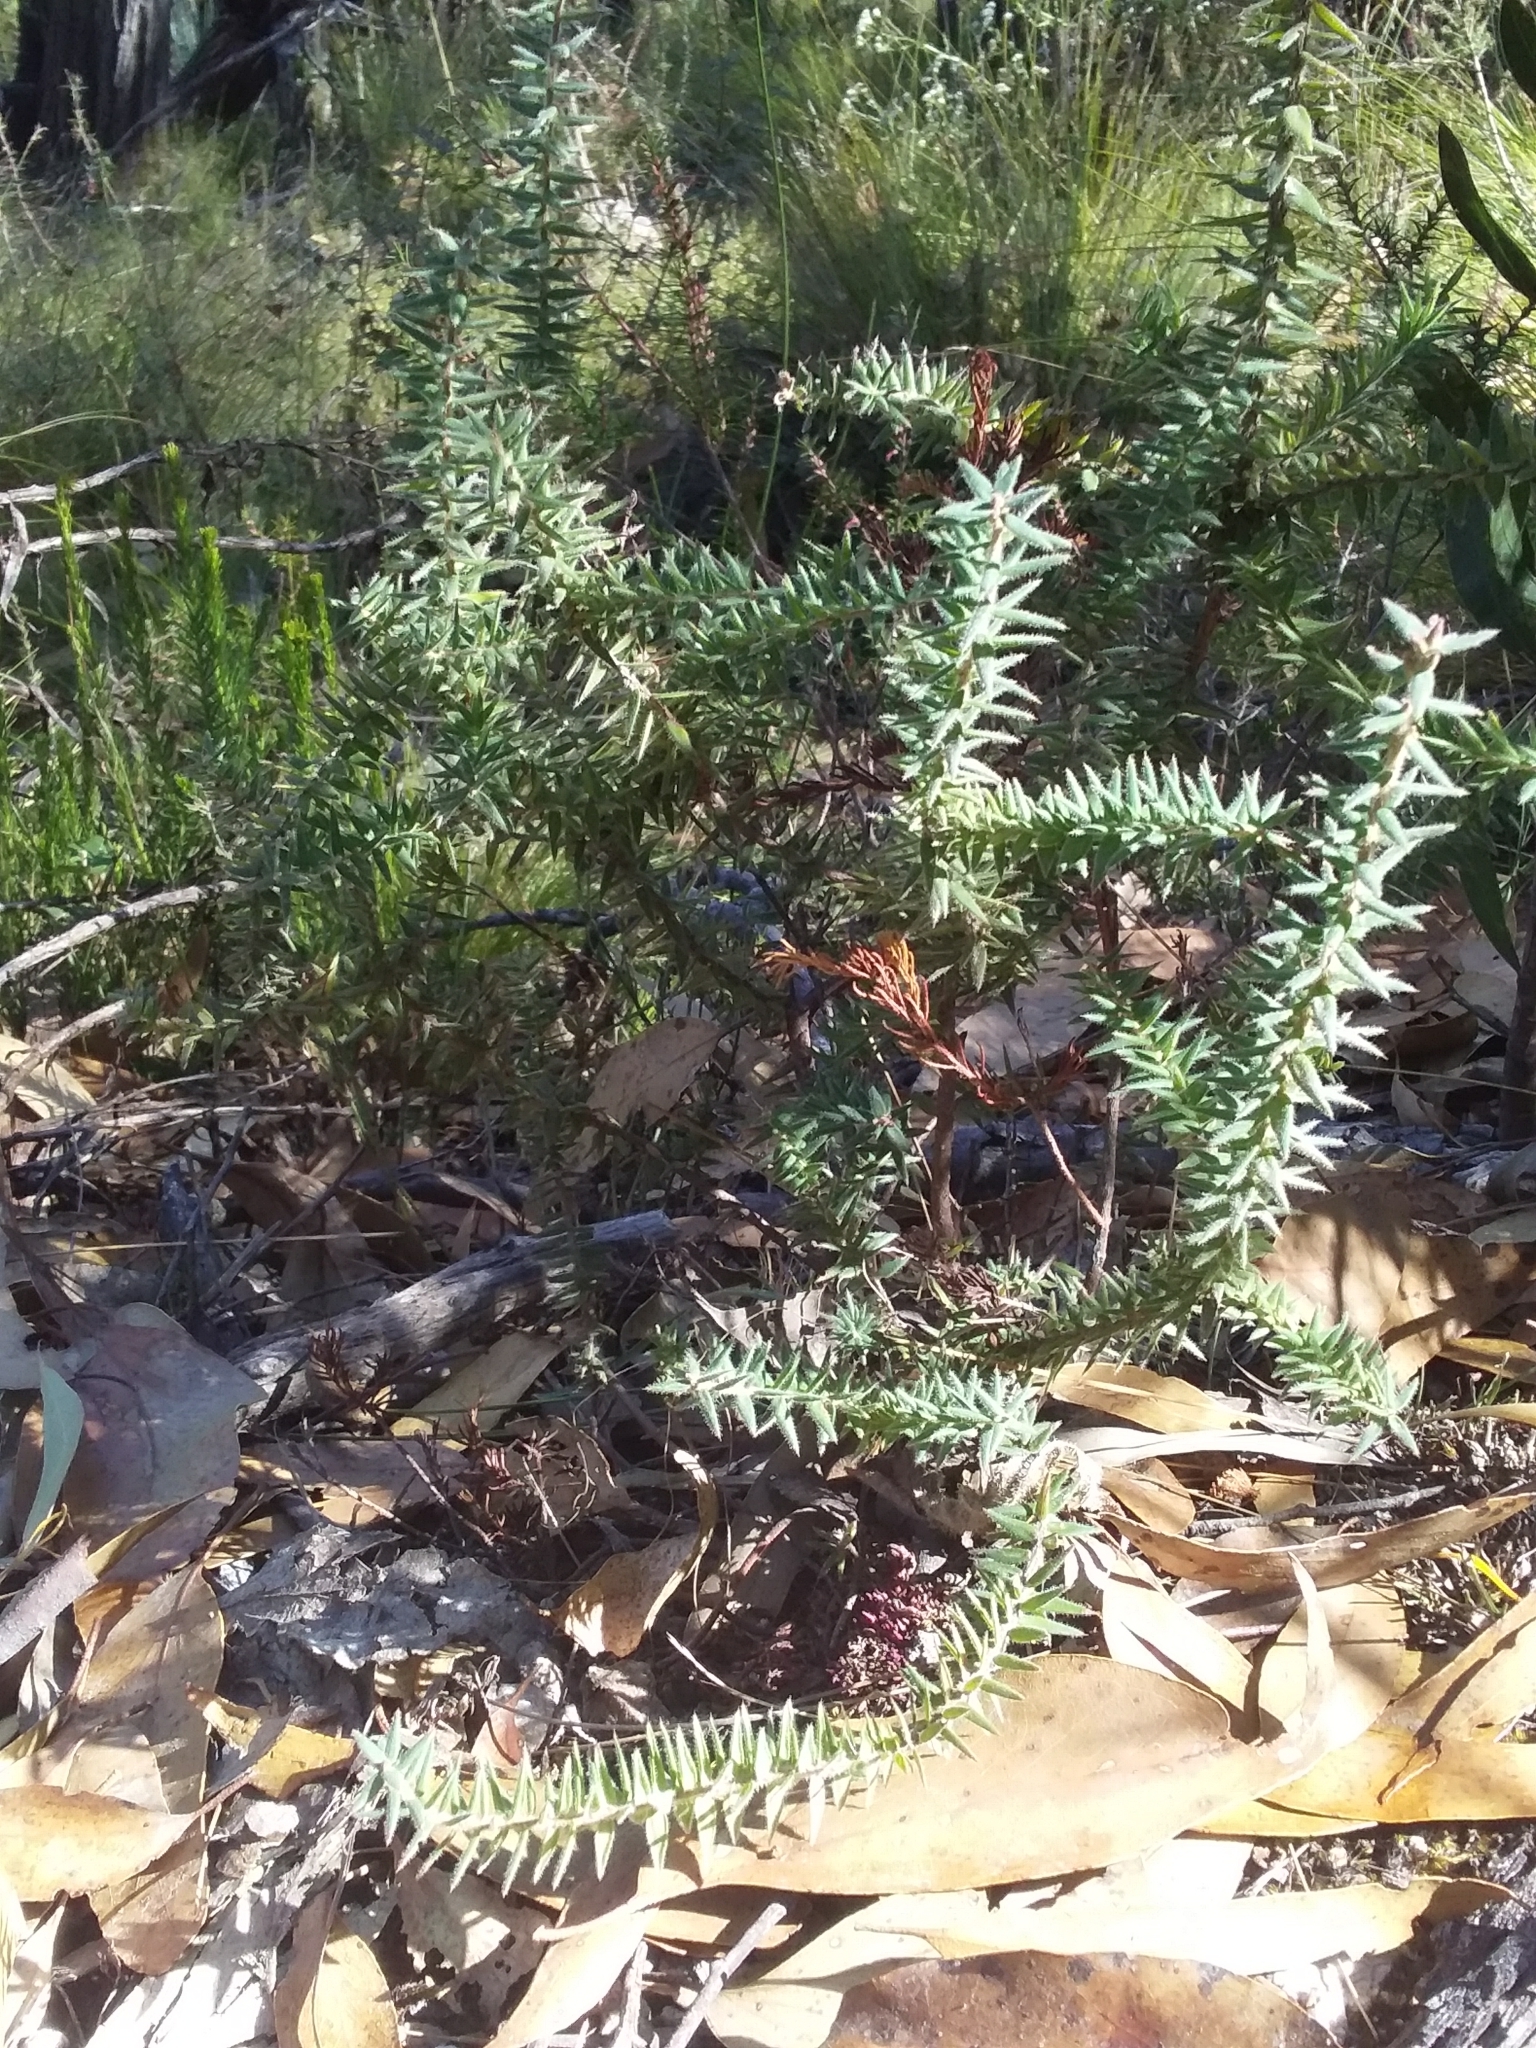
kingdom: Plantae
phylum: Tracheophyta
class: Magnoliopsida
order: Ericales
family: Ericaceae
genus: Acrotriche
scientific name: Acrotriche fasciculiflora
